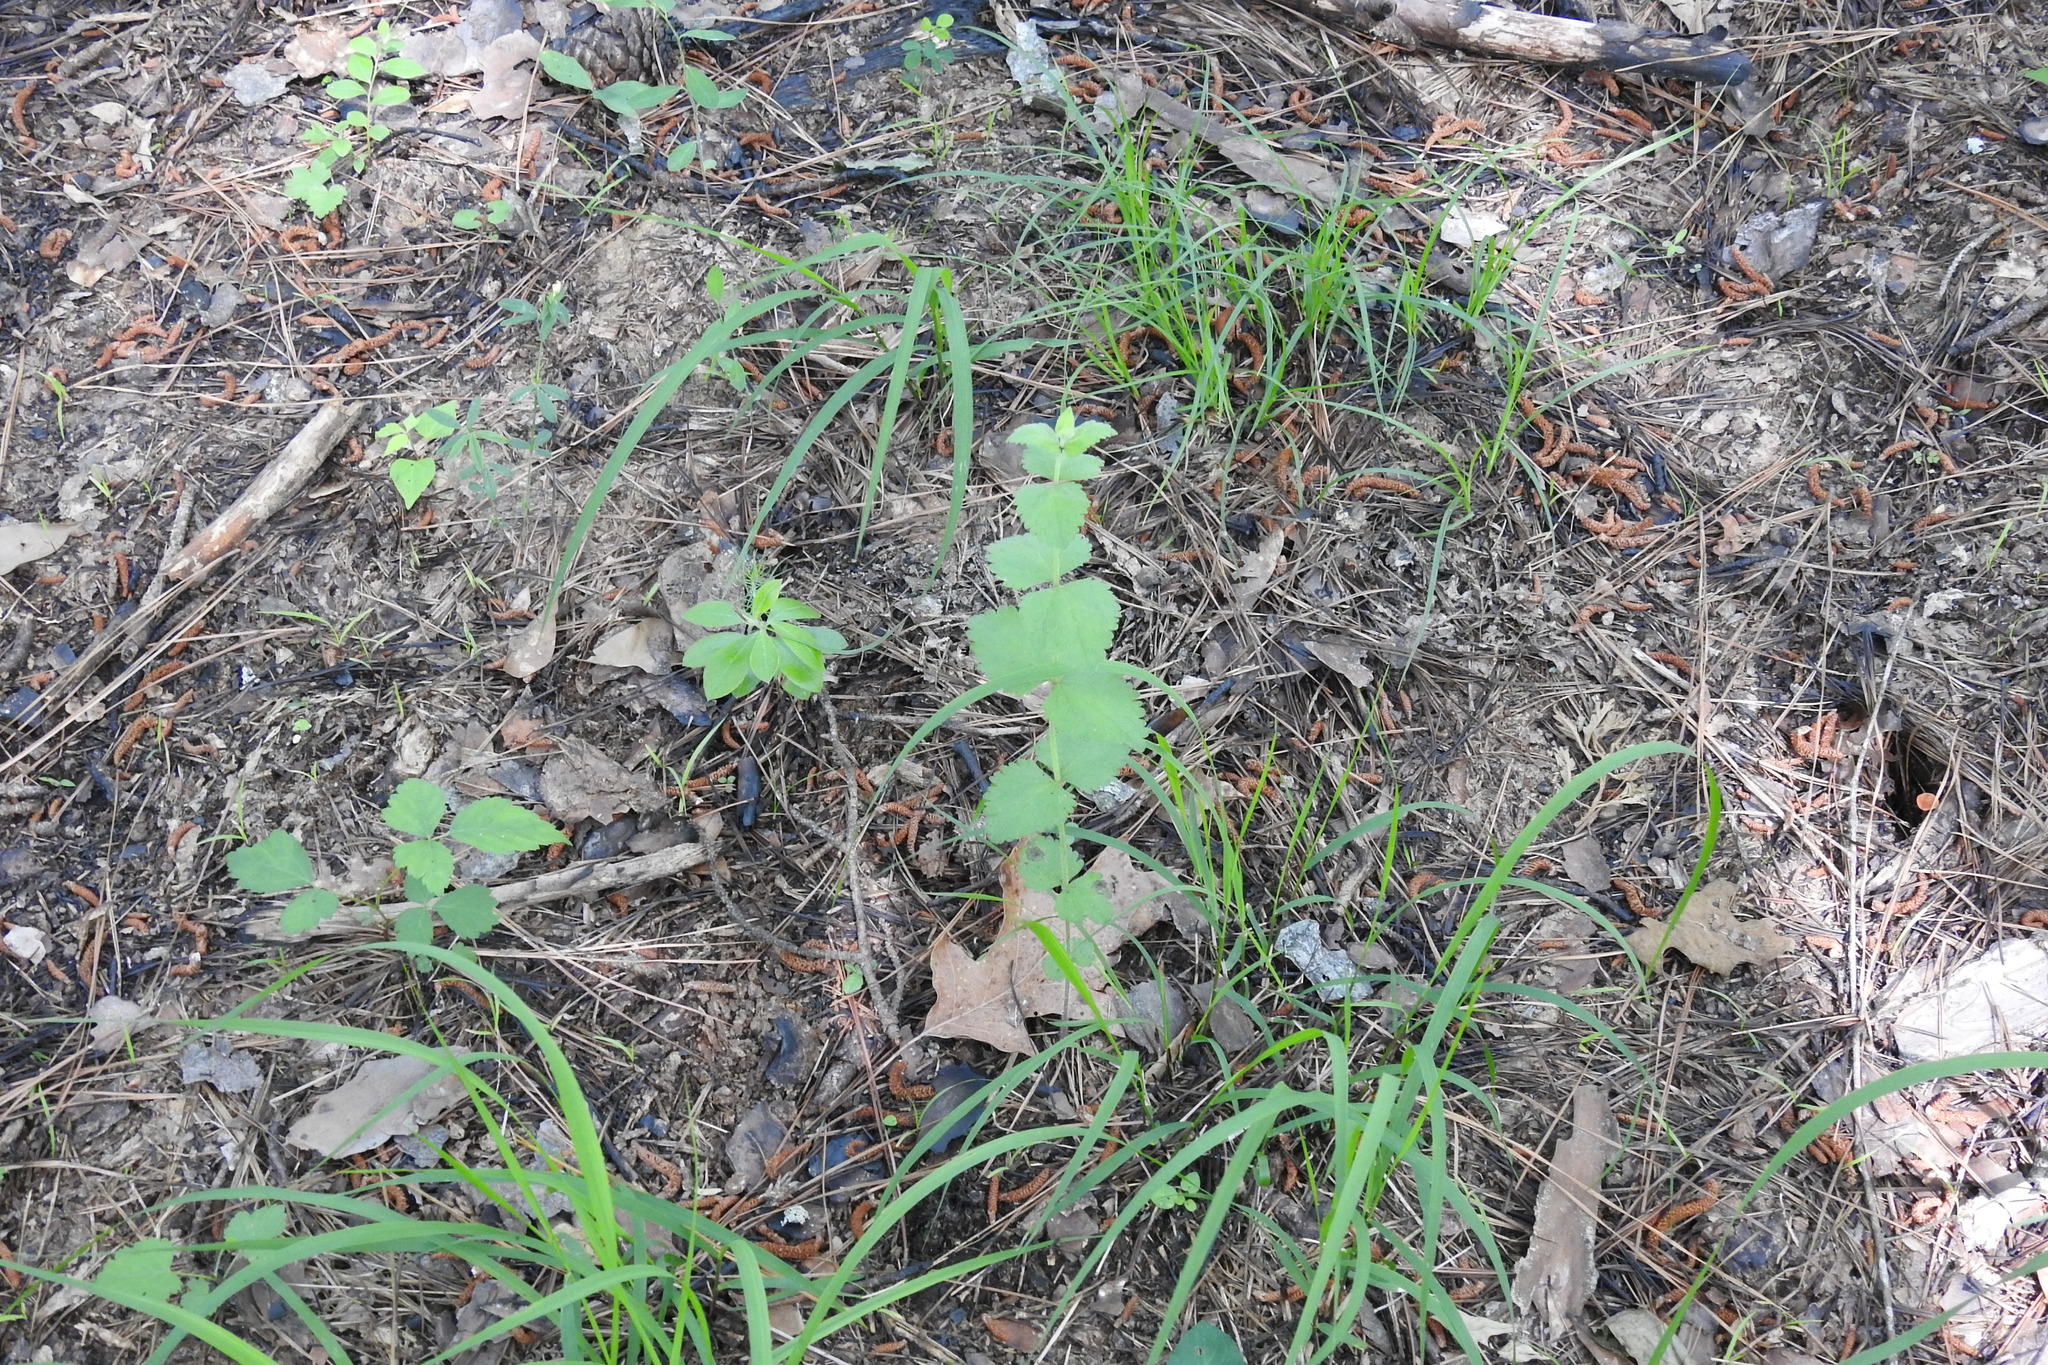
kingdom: Plantae
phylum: Tracheophyta
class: Magnoliopsida
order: Asterales
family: Asteraceae
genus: Eupatorium
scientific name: Eupatorium rotundifolium
